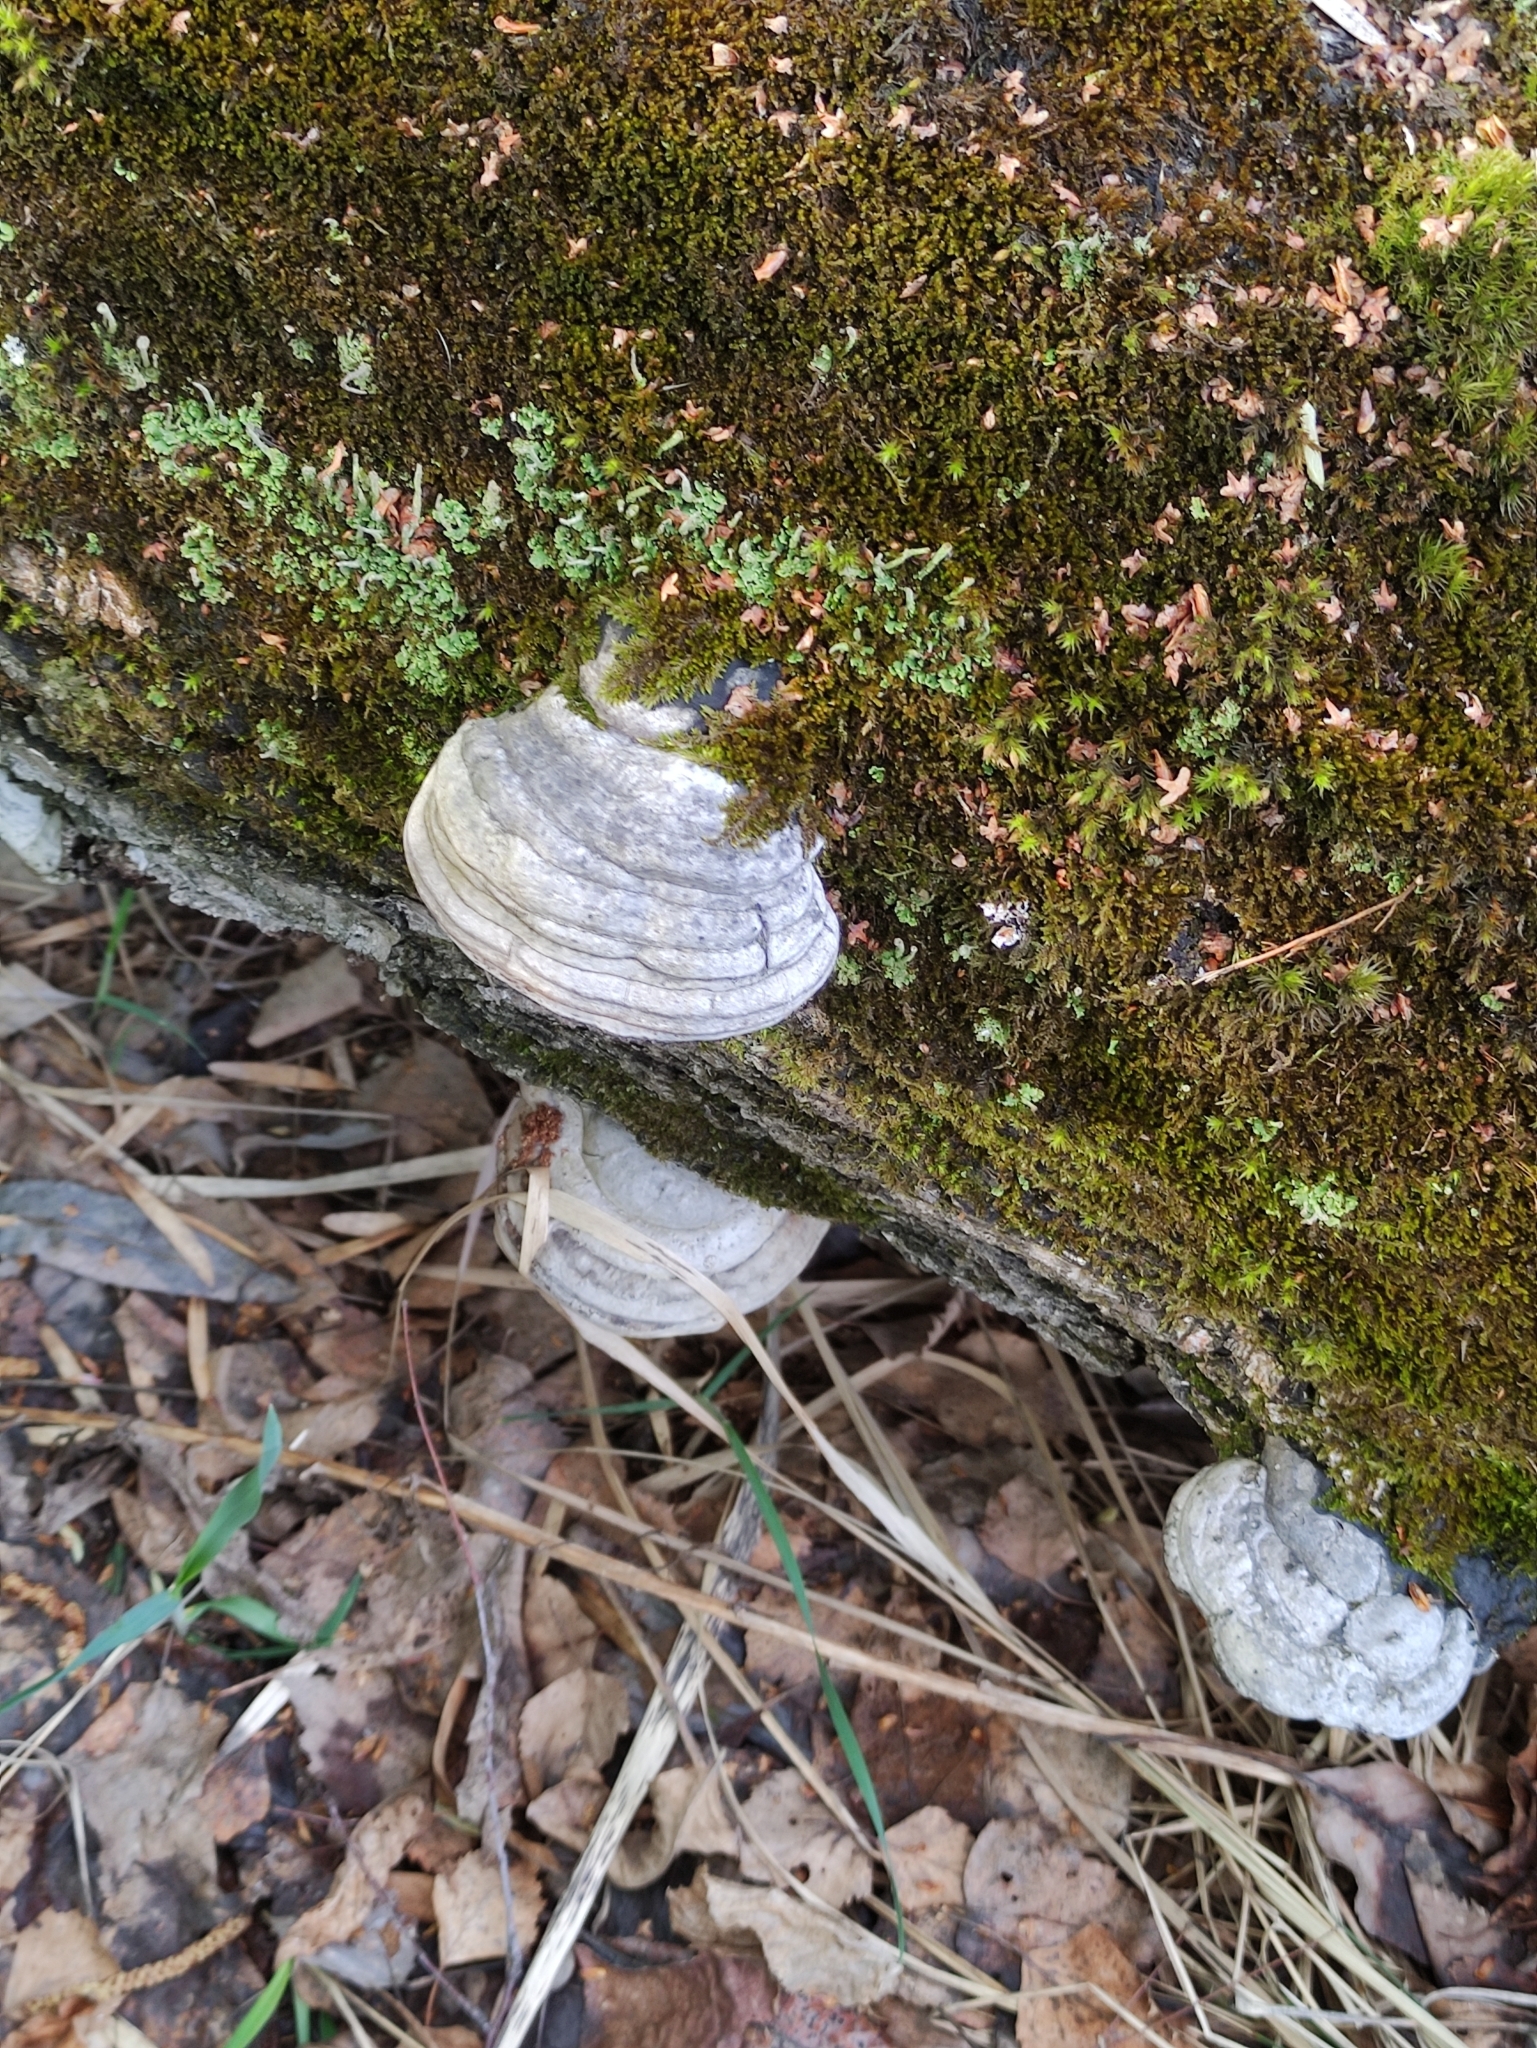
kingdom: Fungi
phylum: Basidiomycota
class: Agaricomycetes
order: Polyporales
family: Polyporaceae
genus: Fomes
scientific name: Fomes fomentarius
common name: Hoof fungus
